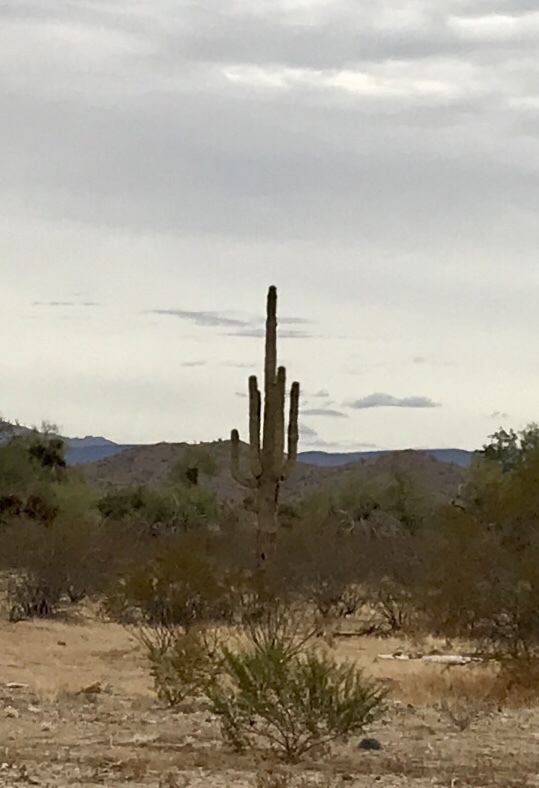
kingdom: Plantae
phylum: Tracheophyta
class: Magnoliopsida
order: Caryophyllales
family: Cactaceae
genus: Carnegiea
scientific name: Carnegiea gigantea
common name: Saguaro
